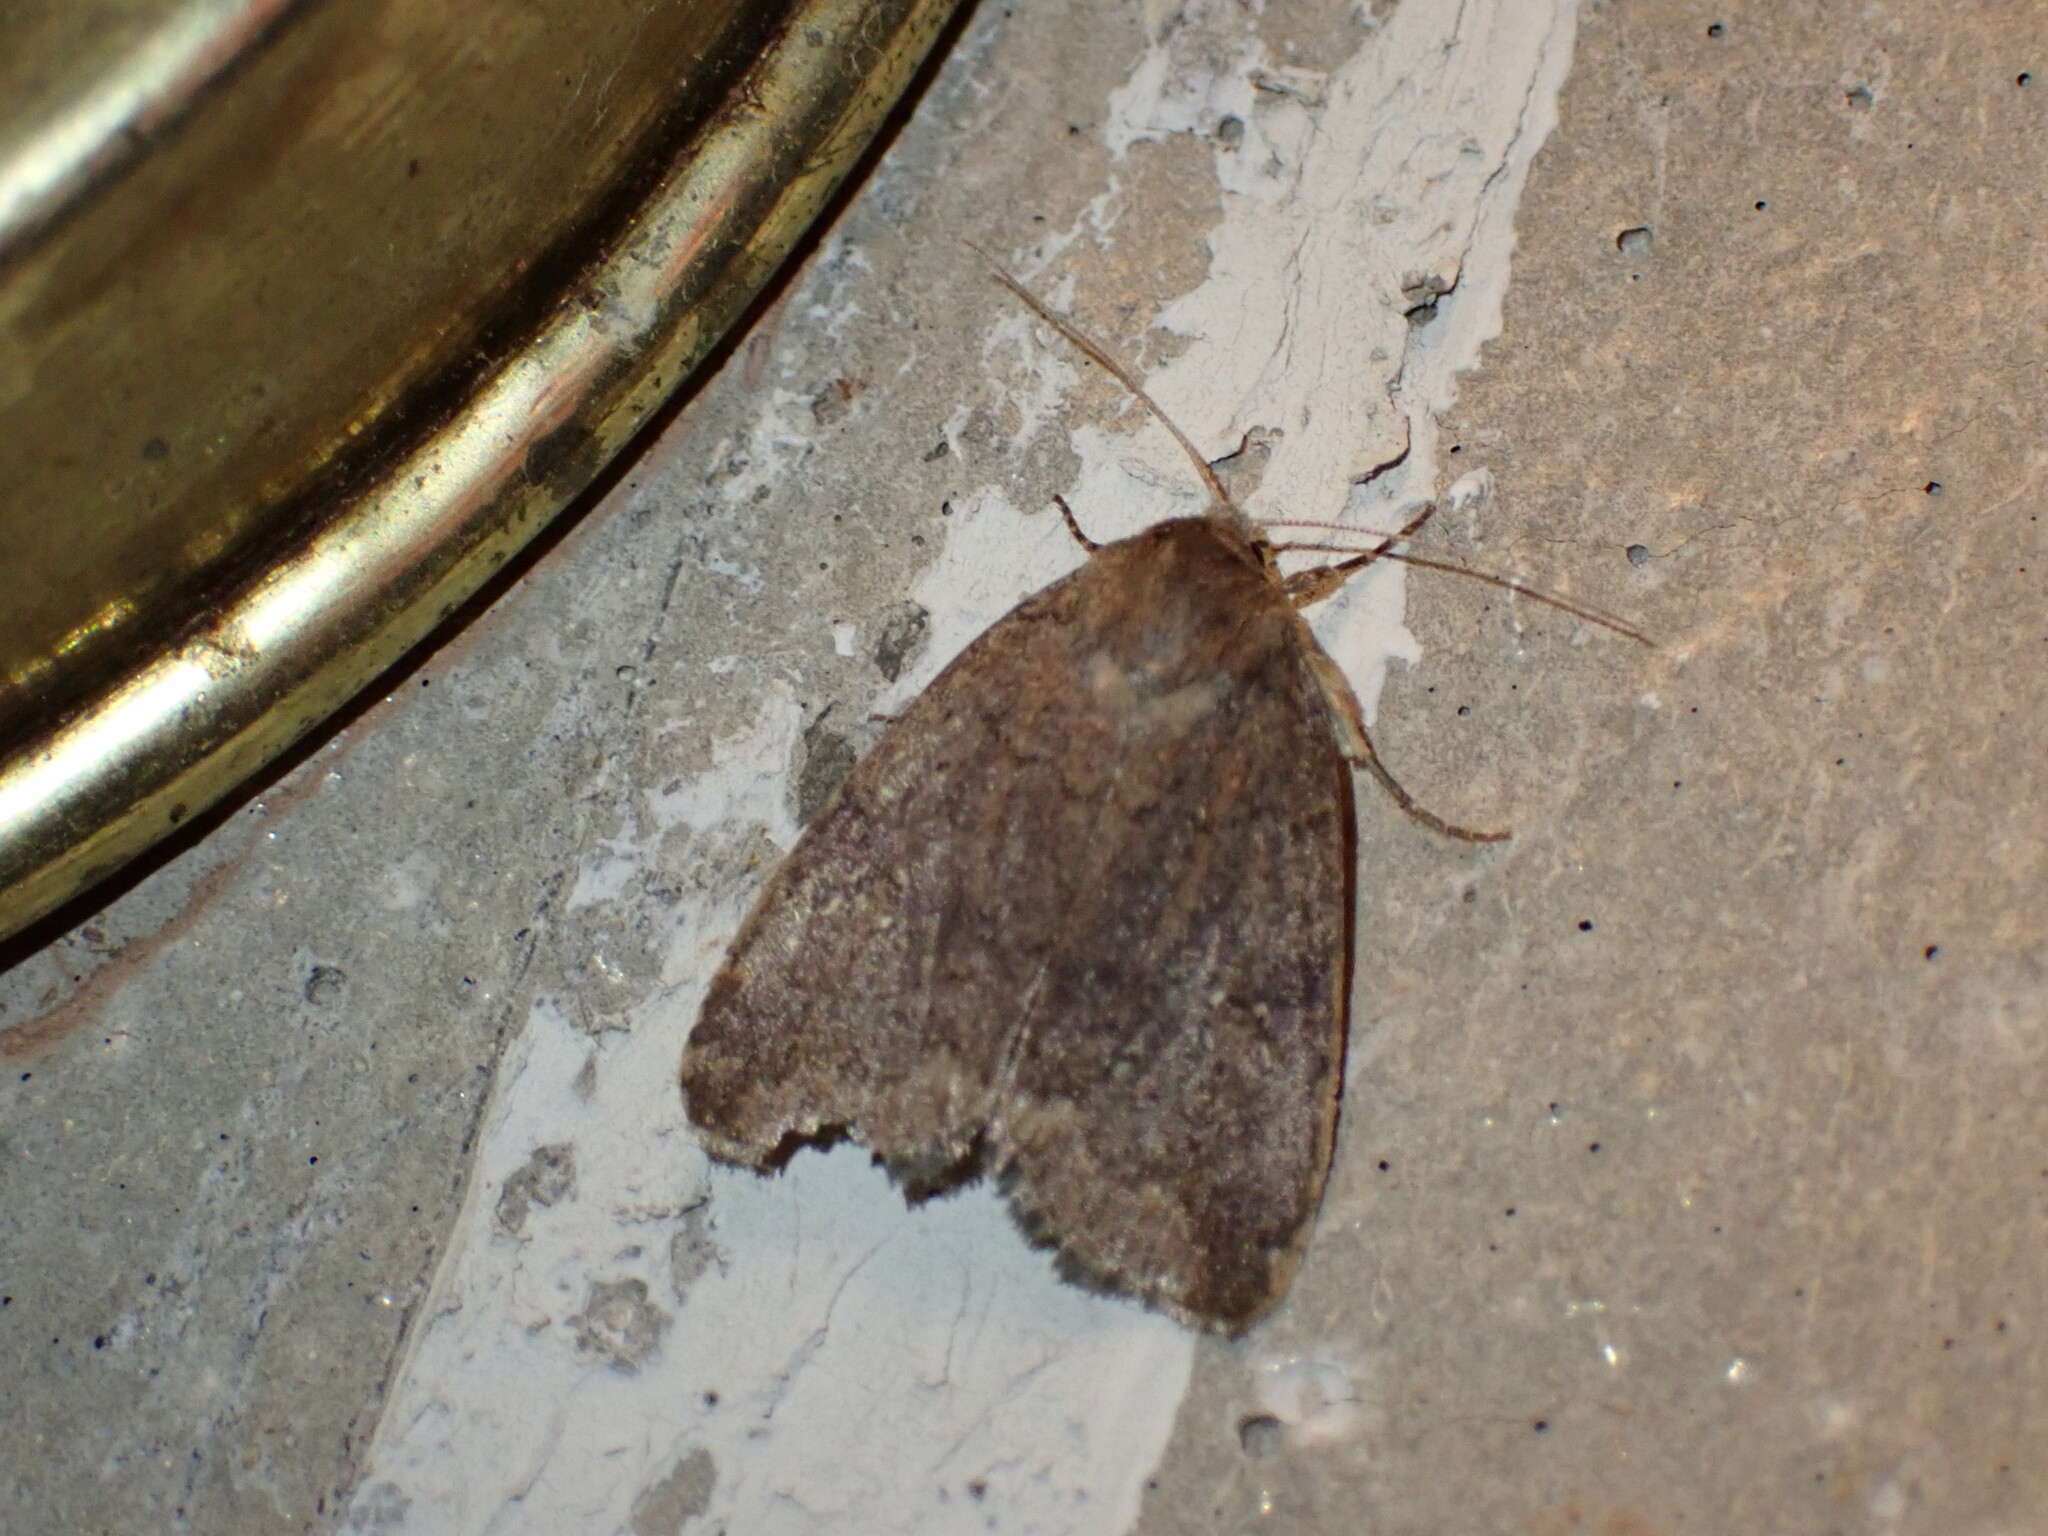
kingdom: Animalia
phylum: Arthropoda
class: Insecta
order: Lepidoptera
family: Noctuidae
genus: Athetis
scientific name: Athetis tarda
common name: Slowpoke moth
